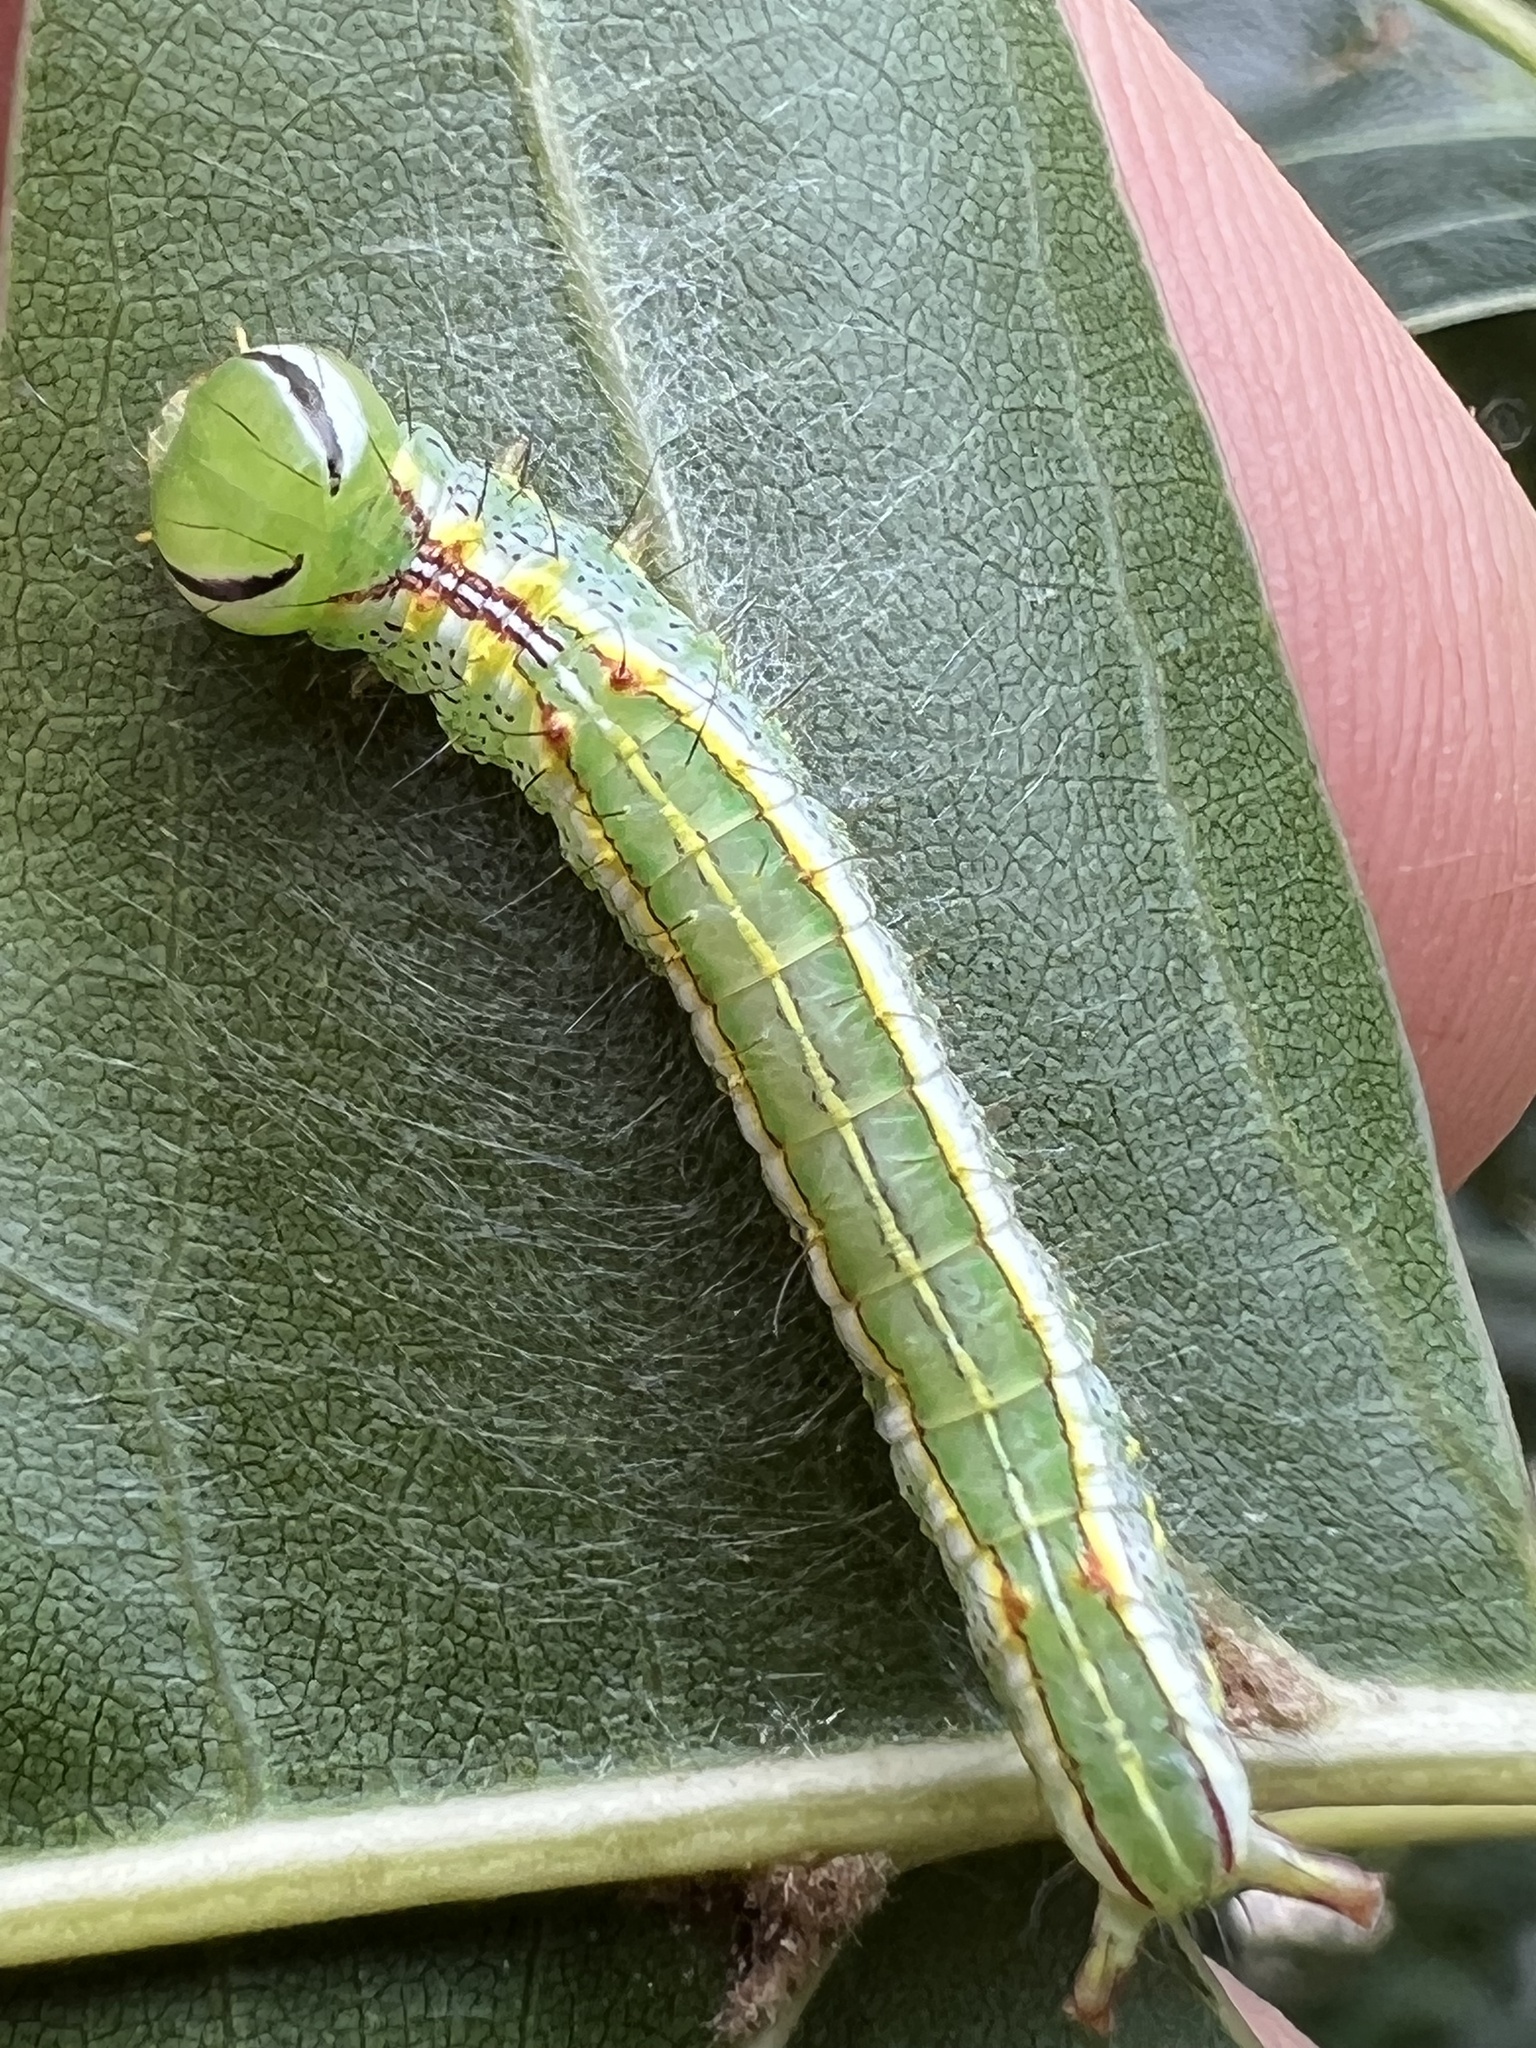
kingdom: Animalia
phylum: Arthropoda
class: Insecta
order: Lepidoptera
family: Notodontidae
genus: Lochmaeus
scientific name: Lochmaeus manteo
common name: Variable oakleaf caterpillar moth
